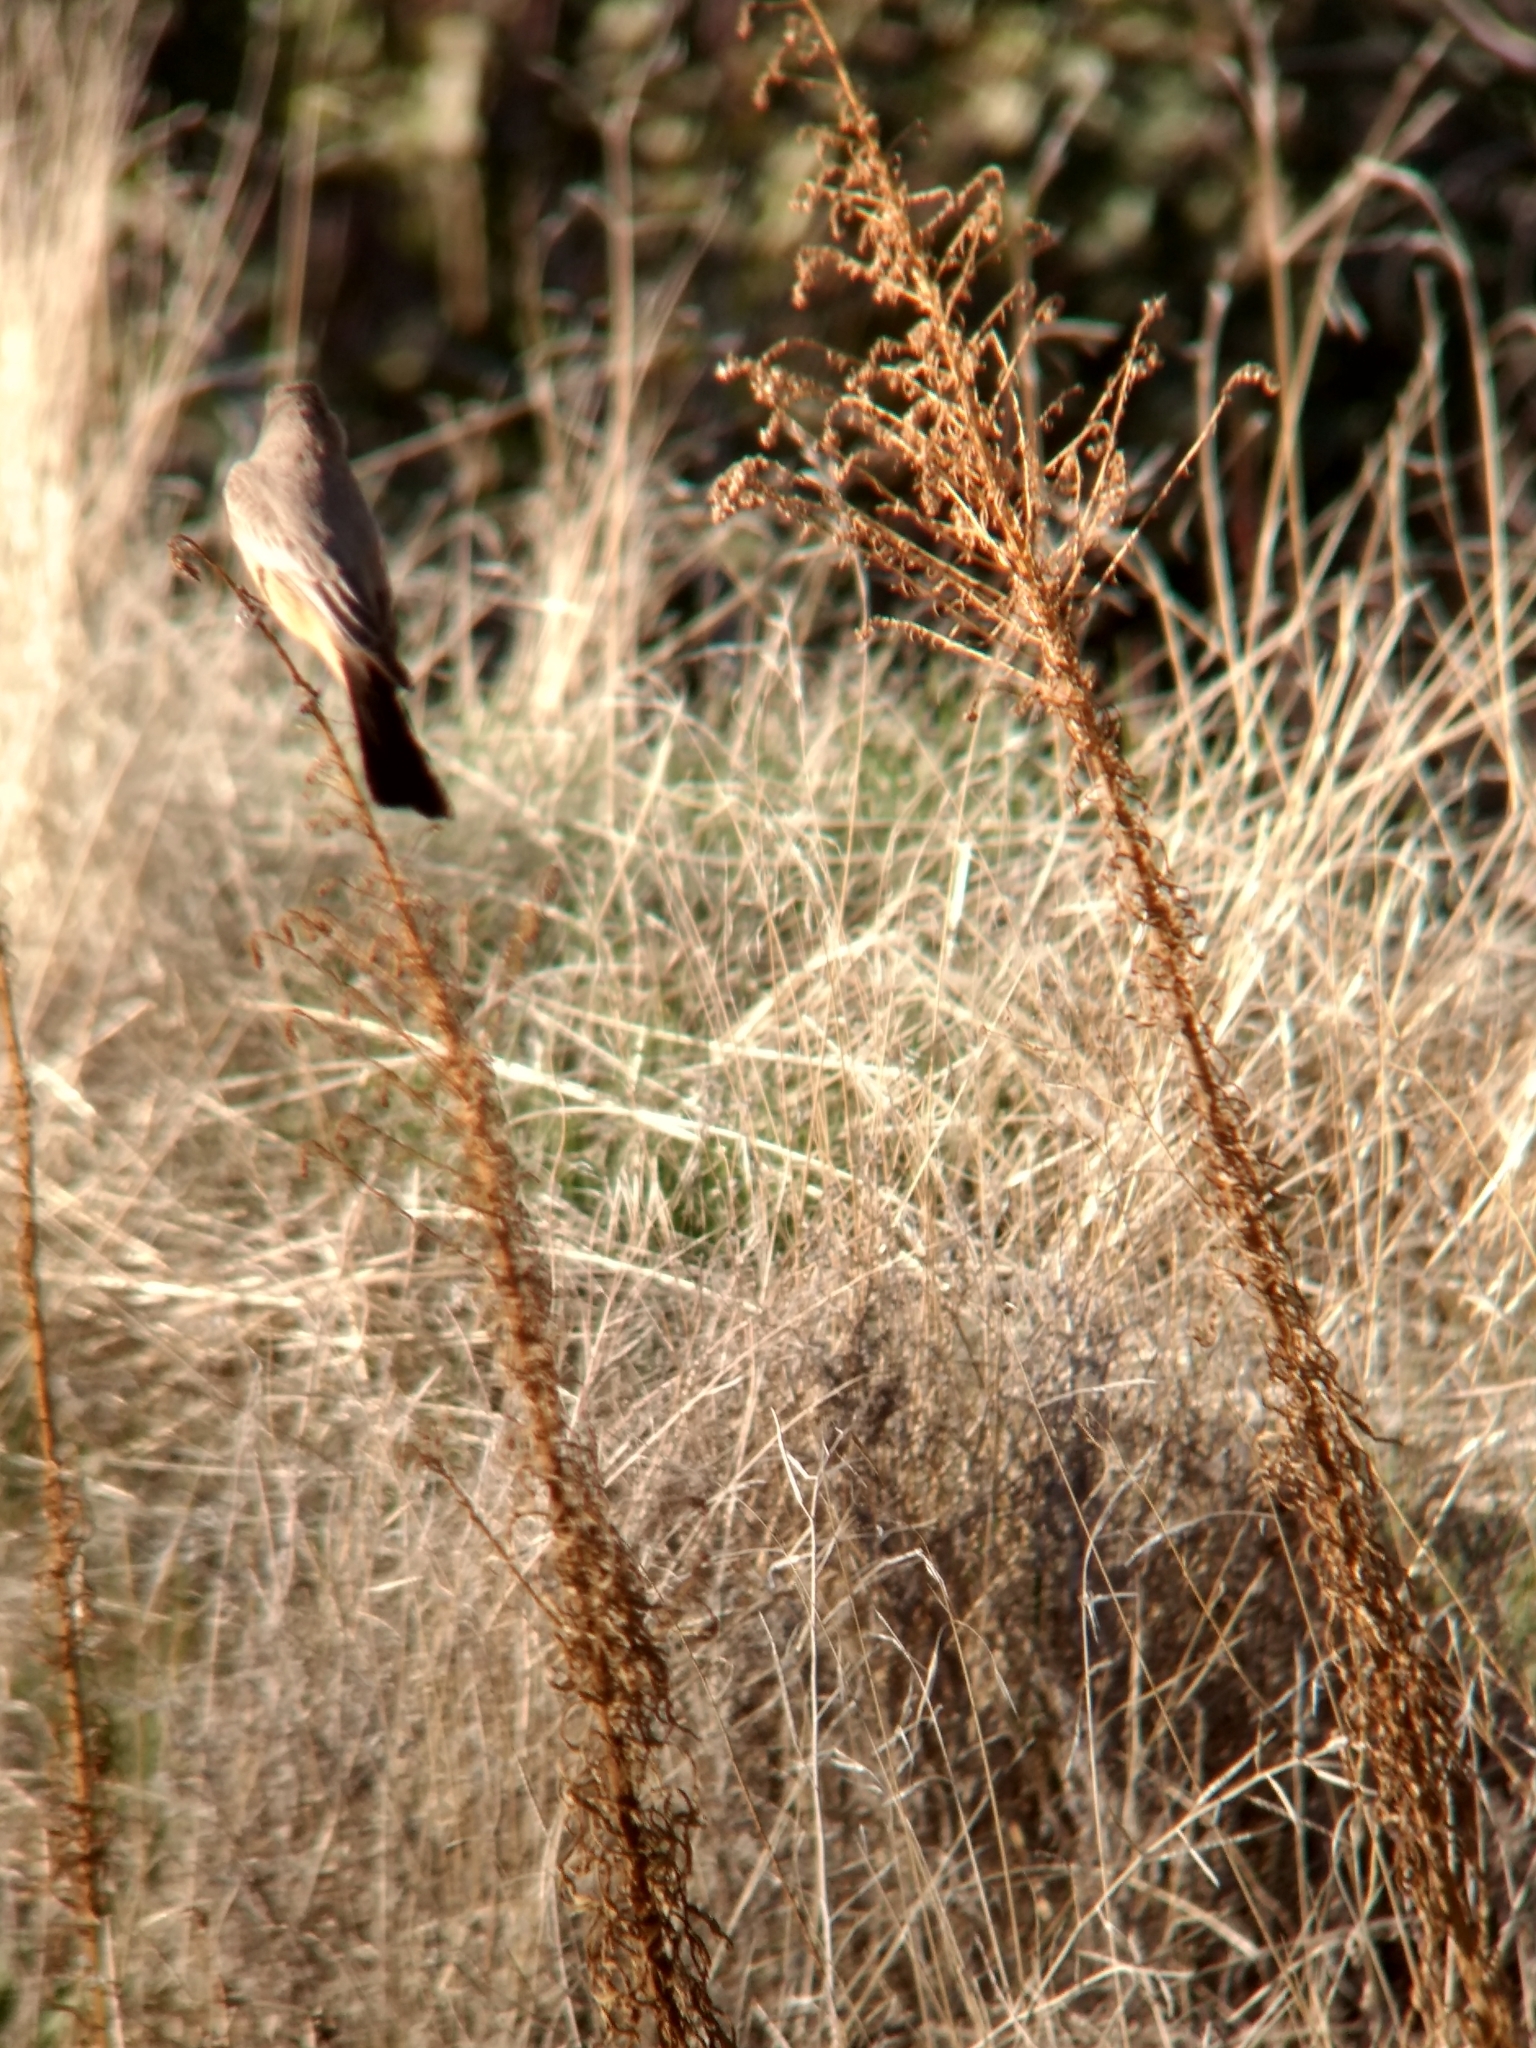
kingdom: Animalia
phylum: Chordata
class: Aves
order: Passeriformes
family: Tyrannidae
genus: Sayornis
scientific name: Sayornis saya
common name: Say's phoebe
